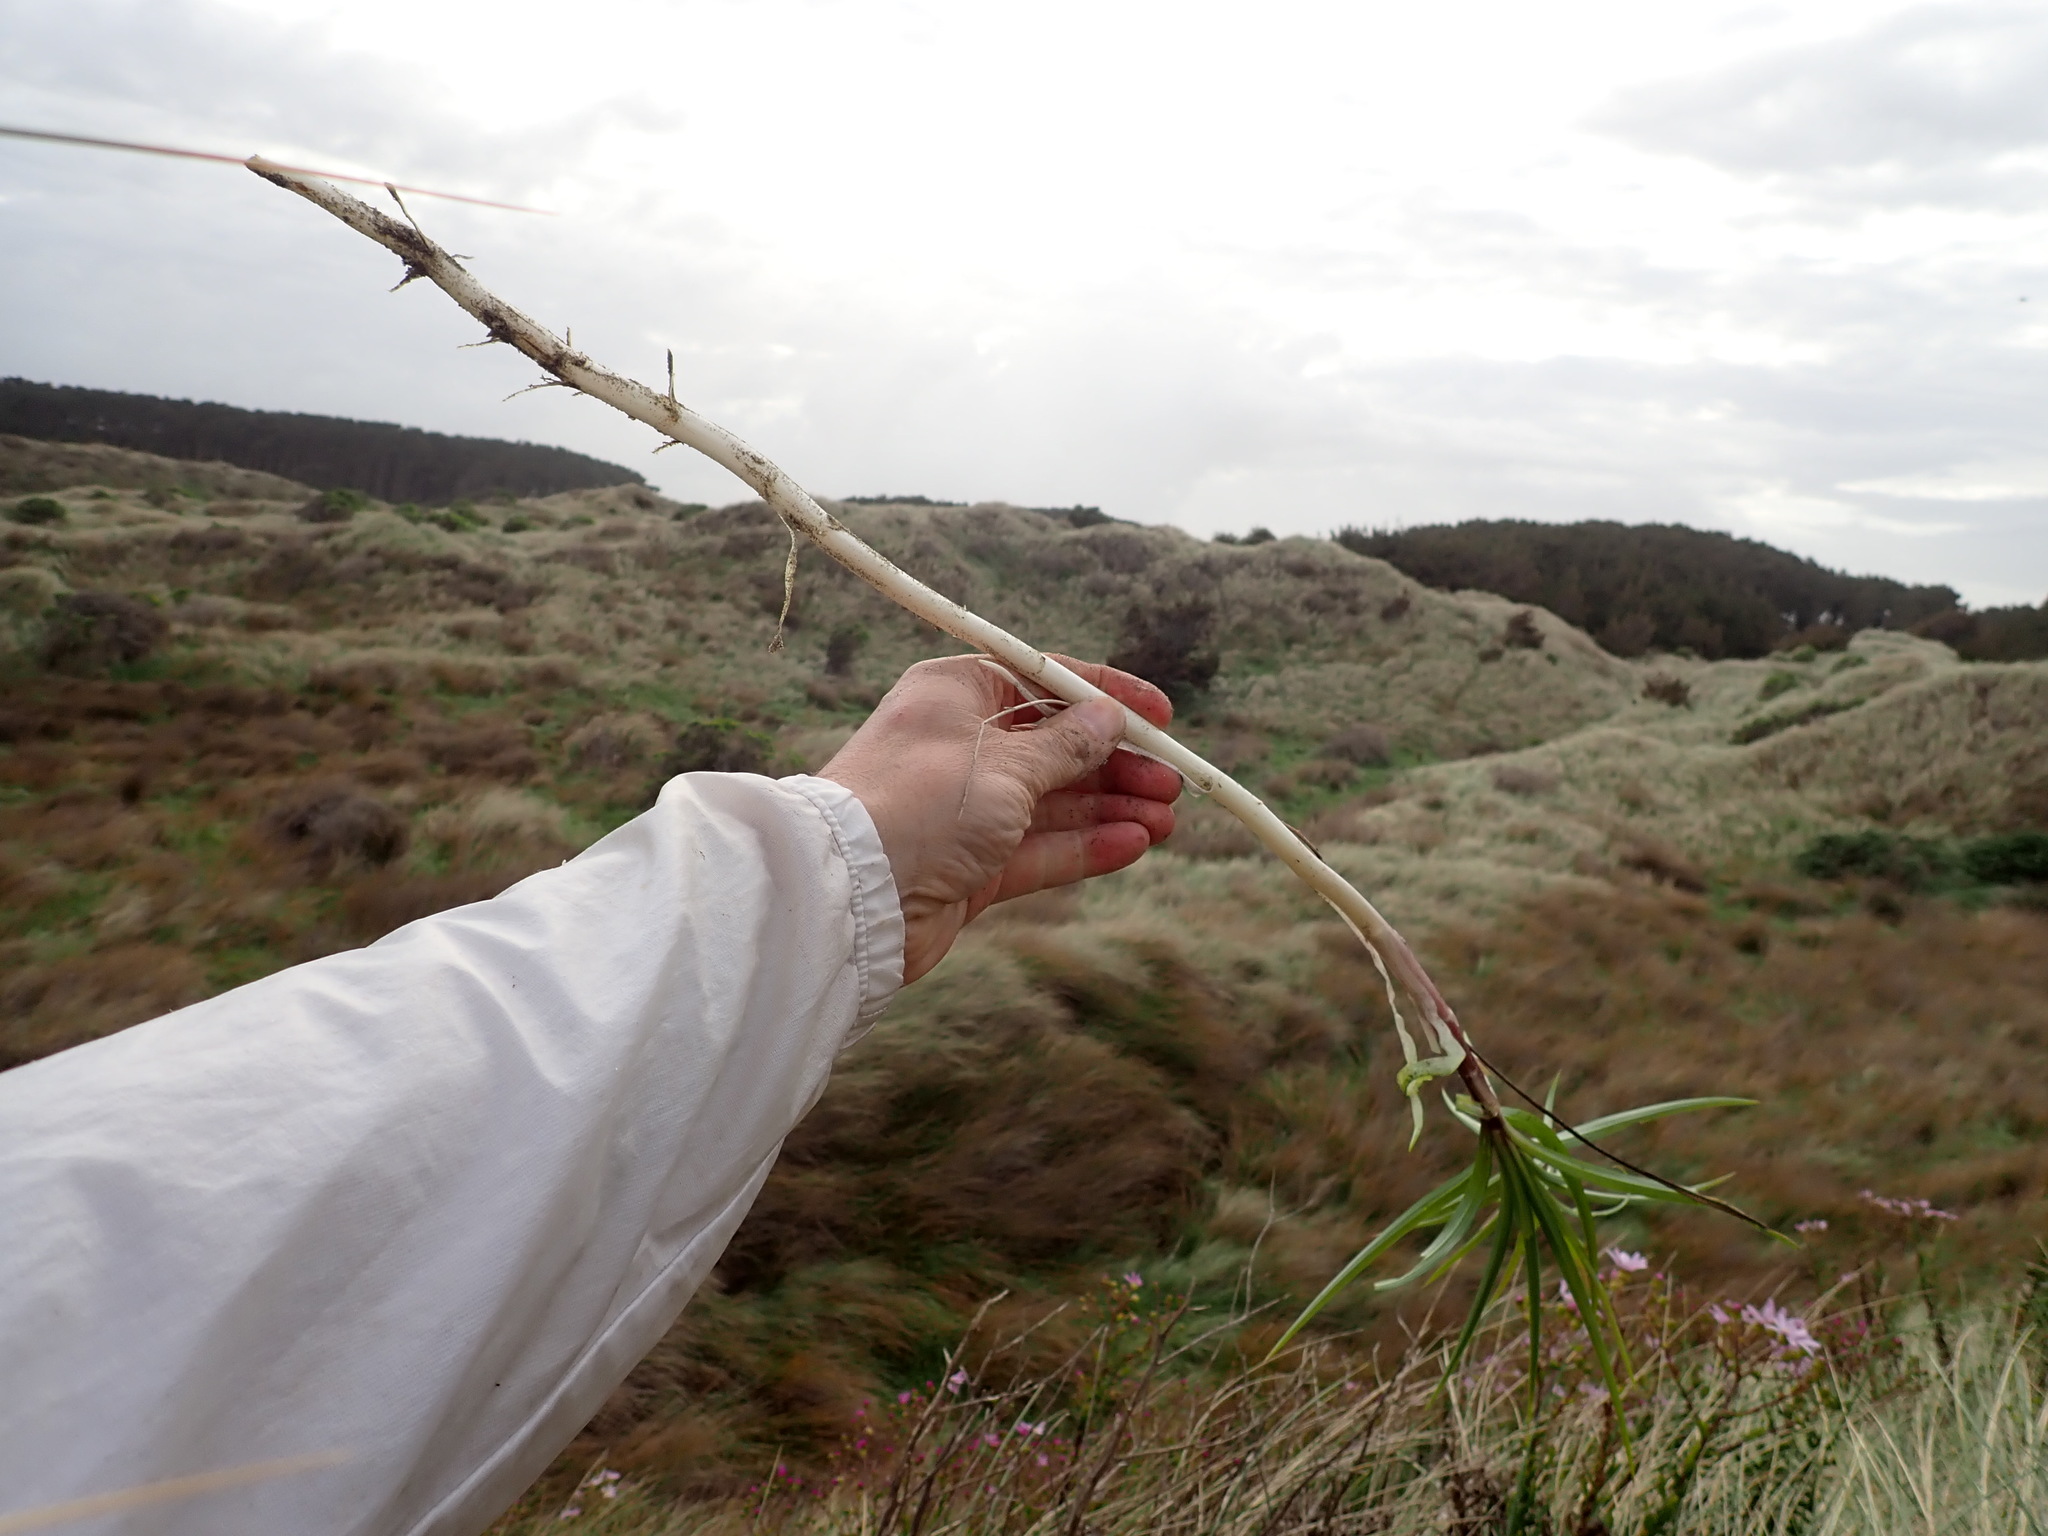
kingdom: Plantae
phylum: Tracheophyta
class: Liliopsida
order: Liliales
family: Liliaceae
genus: Lilium
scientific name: Lilium formosanum
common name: Formosa lily
